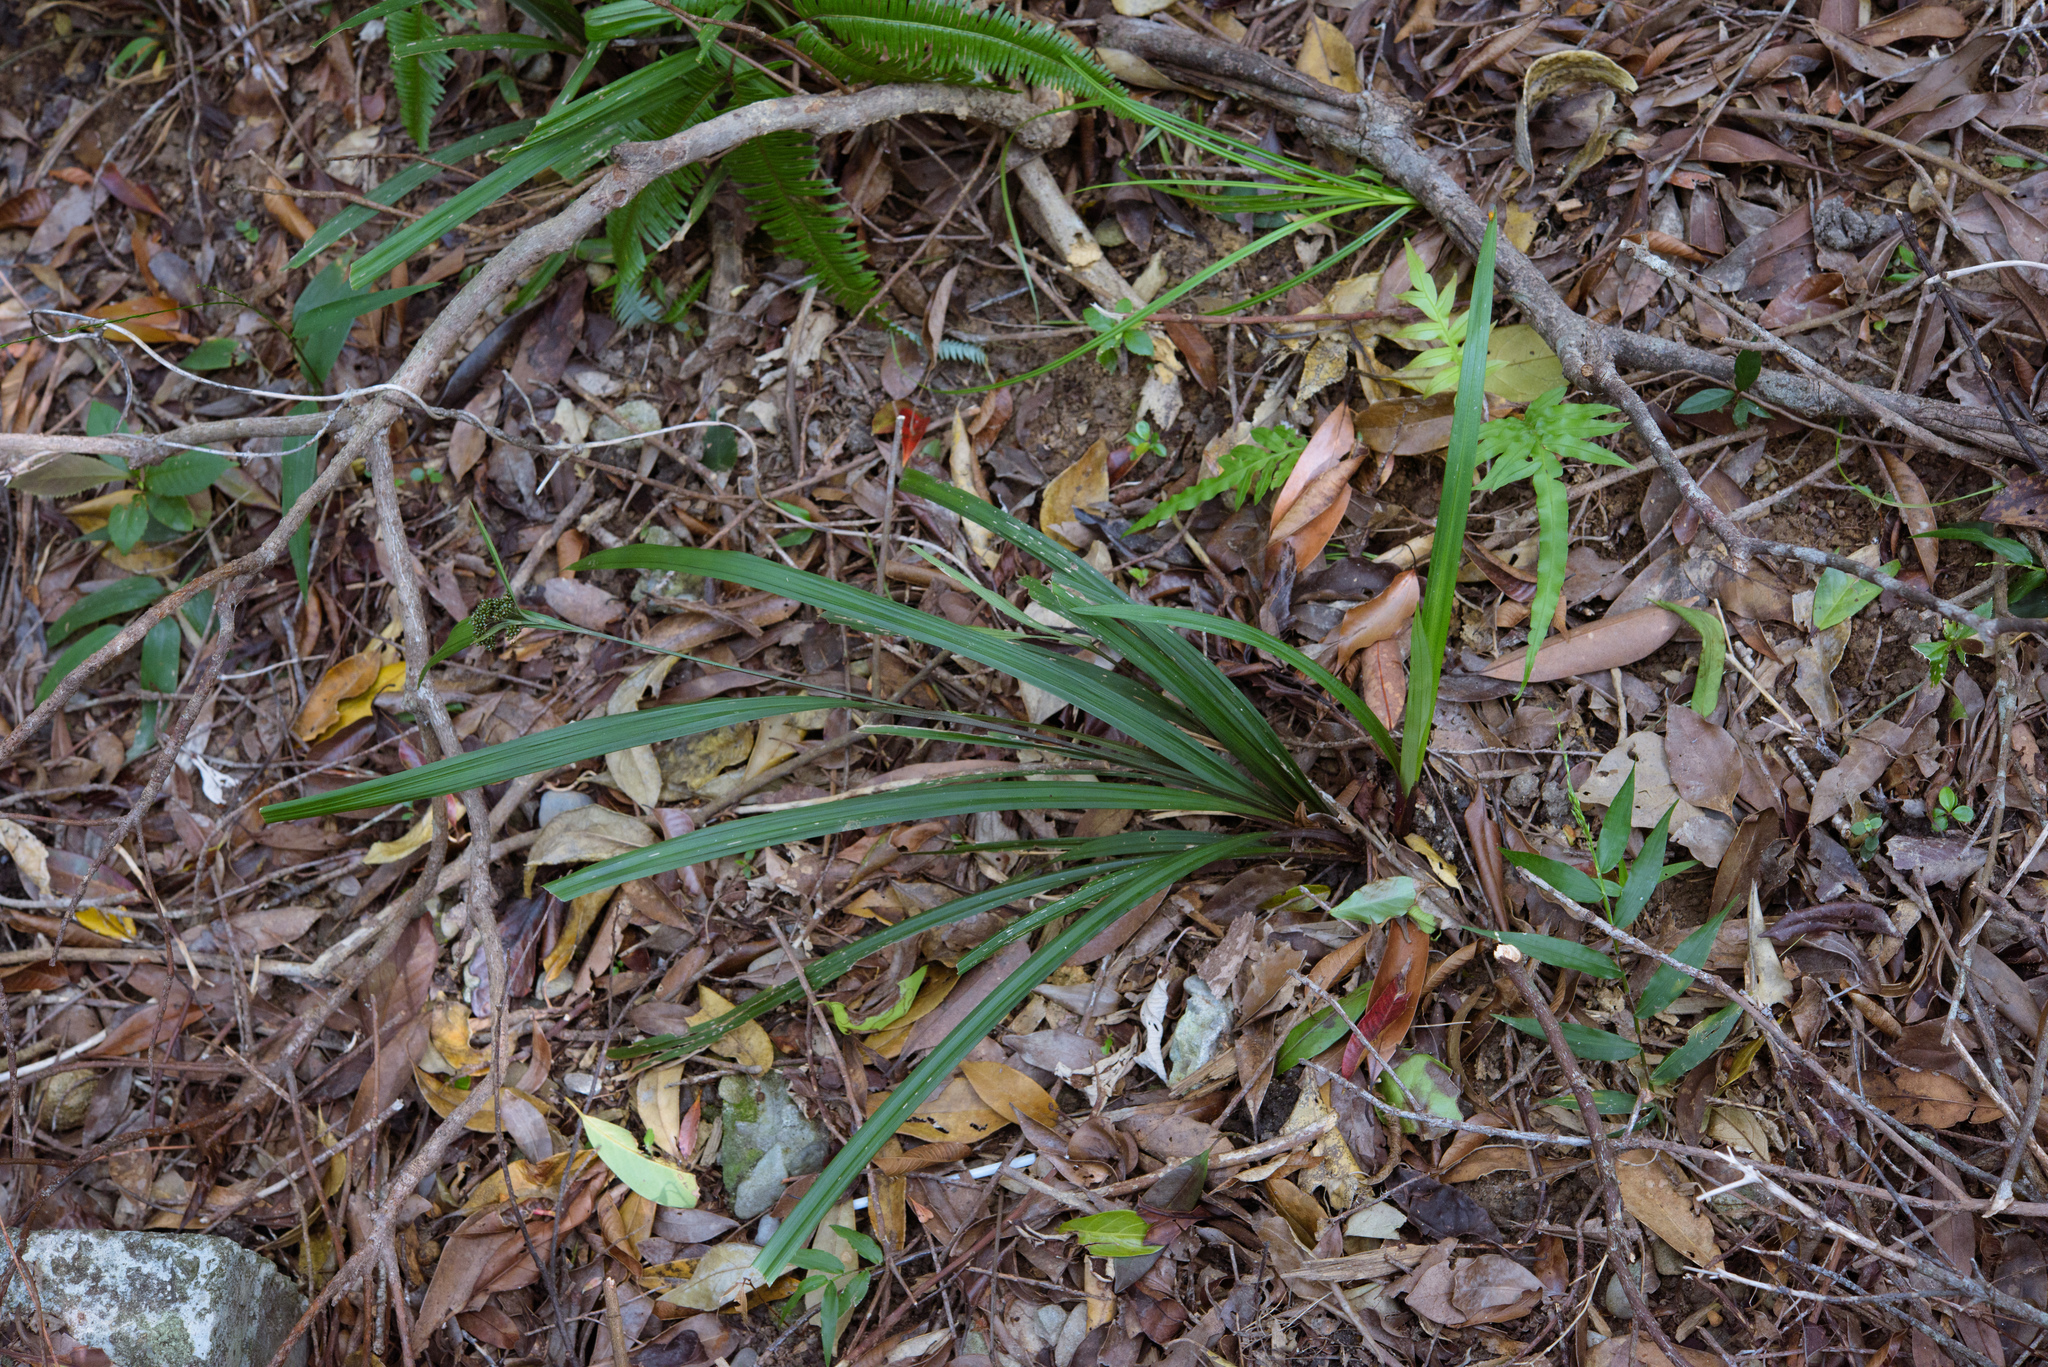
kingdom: Plantae
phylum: Tracheophyta
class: Liliopsida
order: Poales
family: Cyperaceae
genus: Hypolytrum
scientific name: Hypolytrum nemorum
